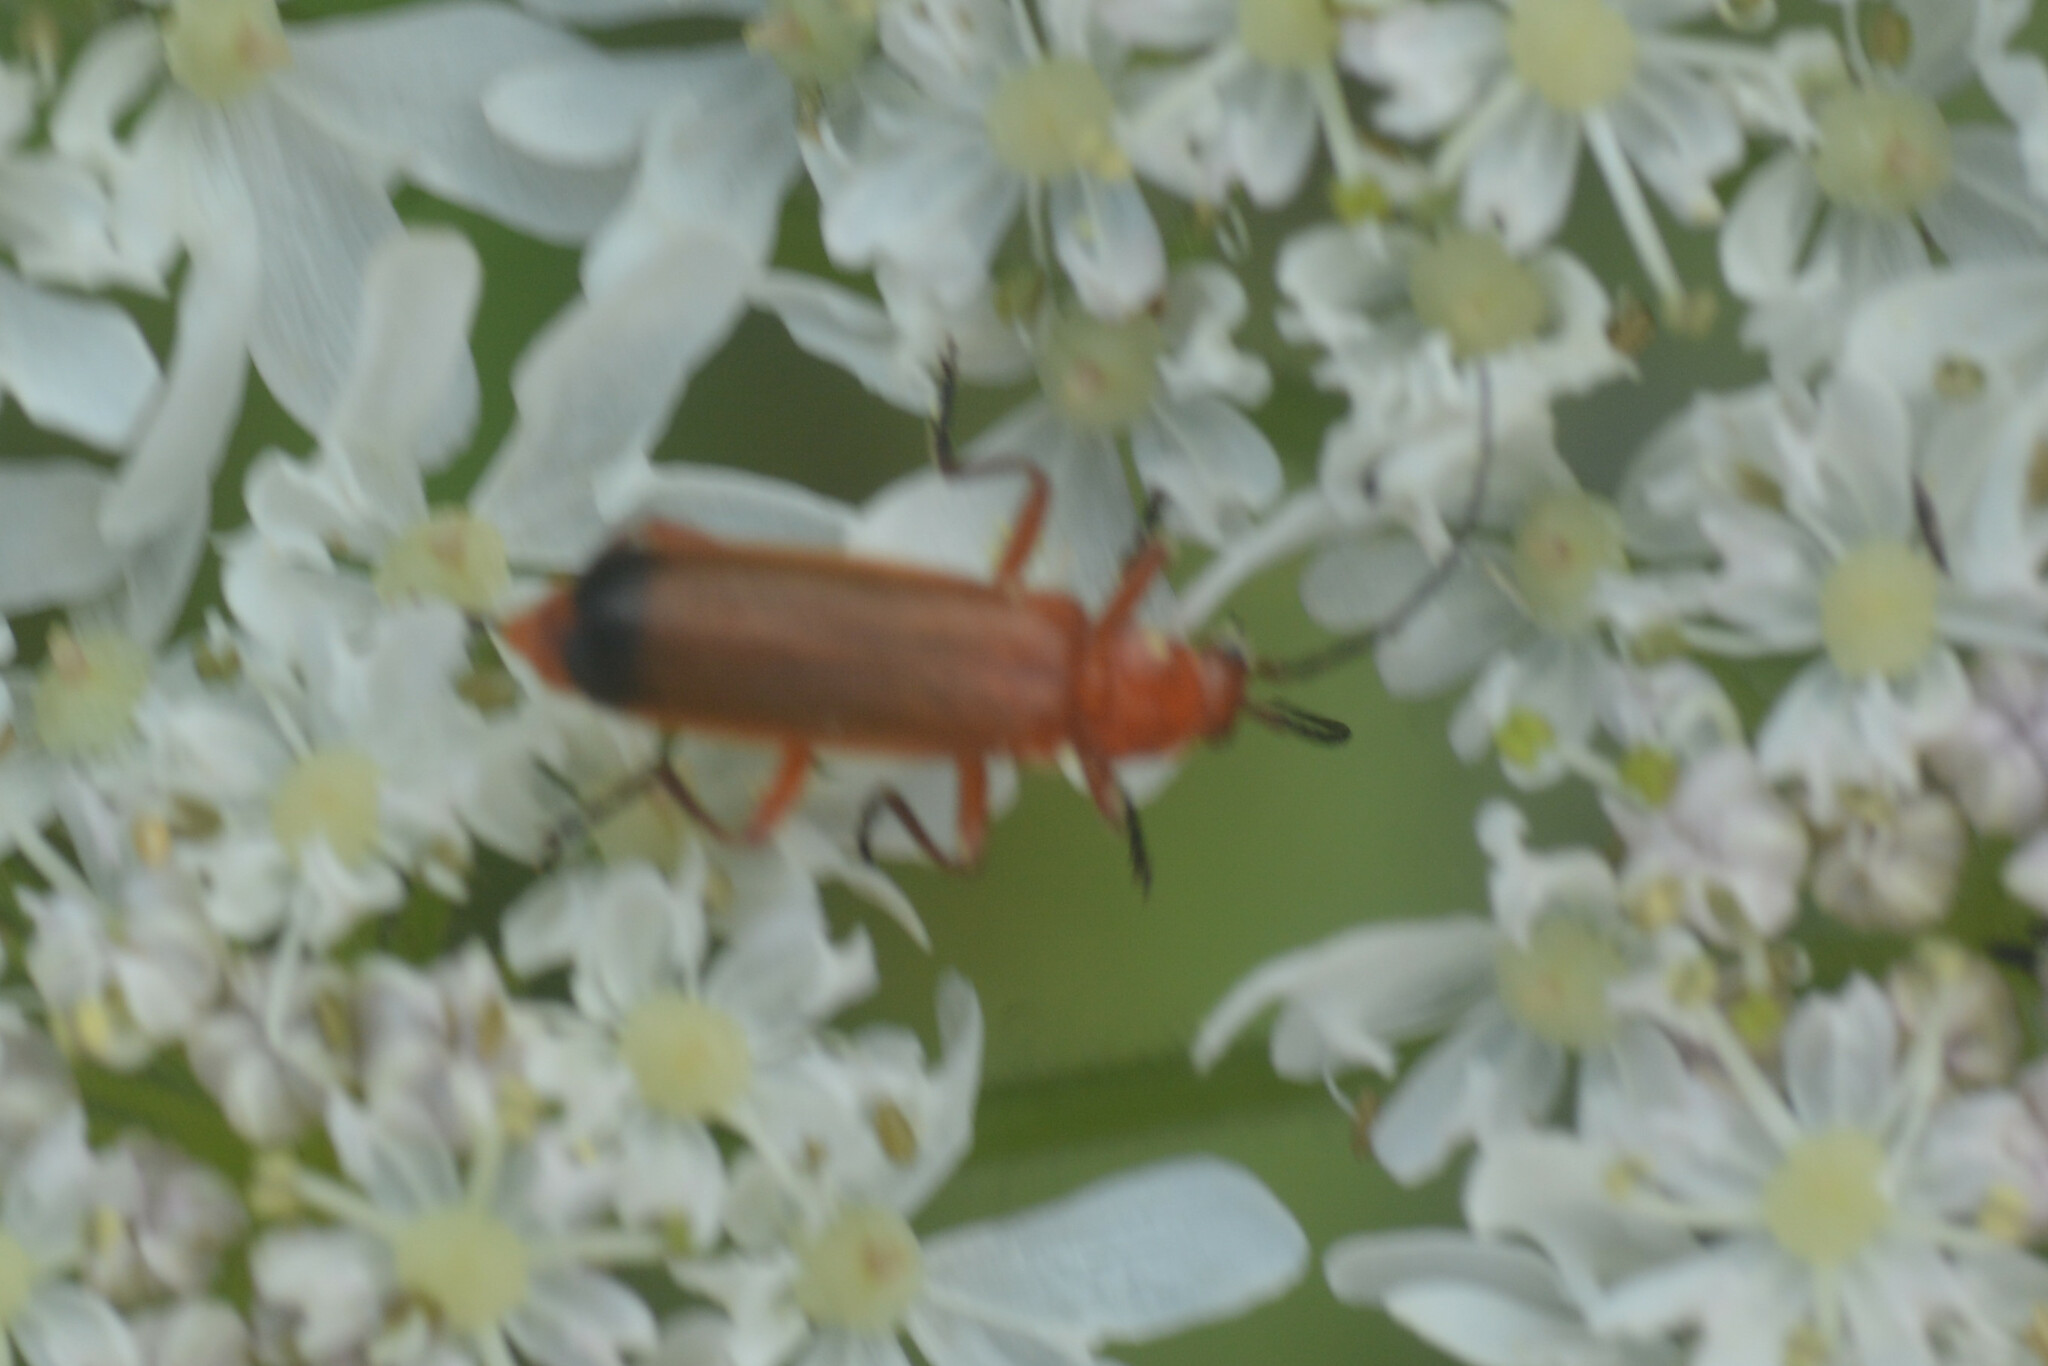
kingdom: Animalia
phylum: Arthropoda
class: Insecta
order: Coleoptera
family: Cantharidae
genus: Rhagonycha
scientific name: Rhagonycha fulva
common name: Common red soldier beetle
